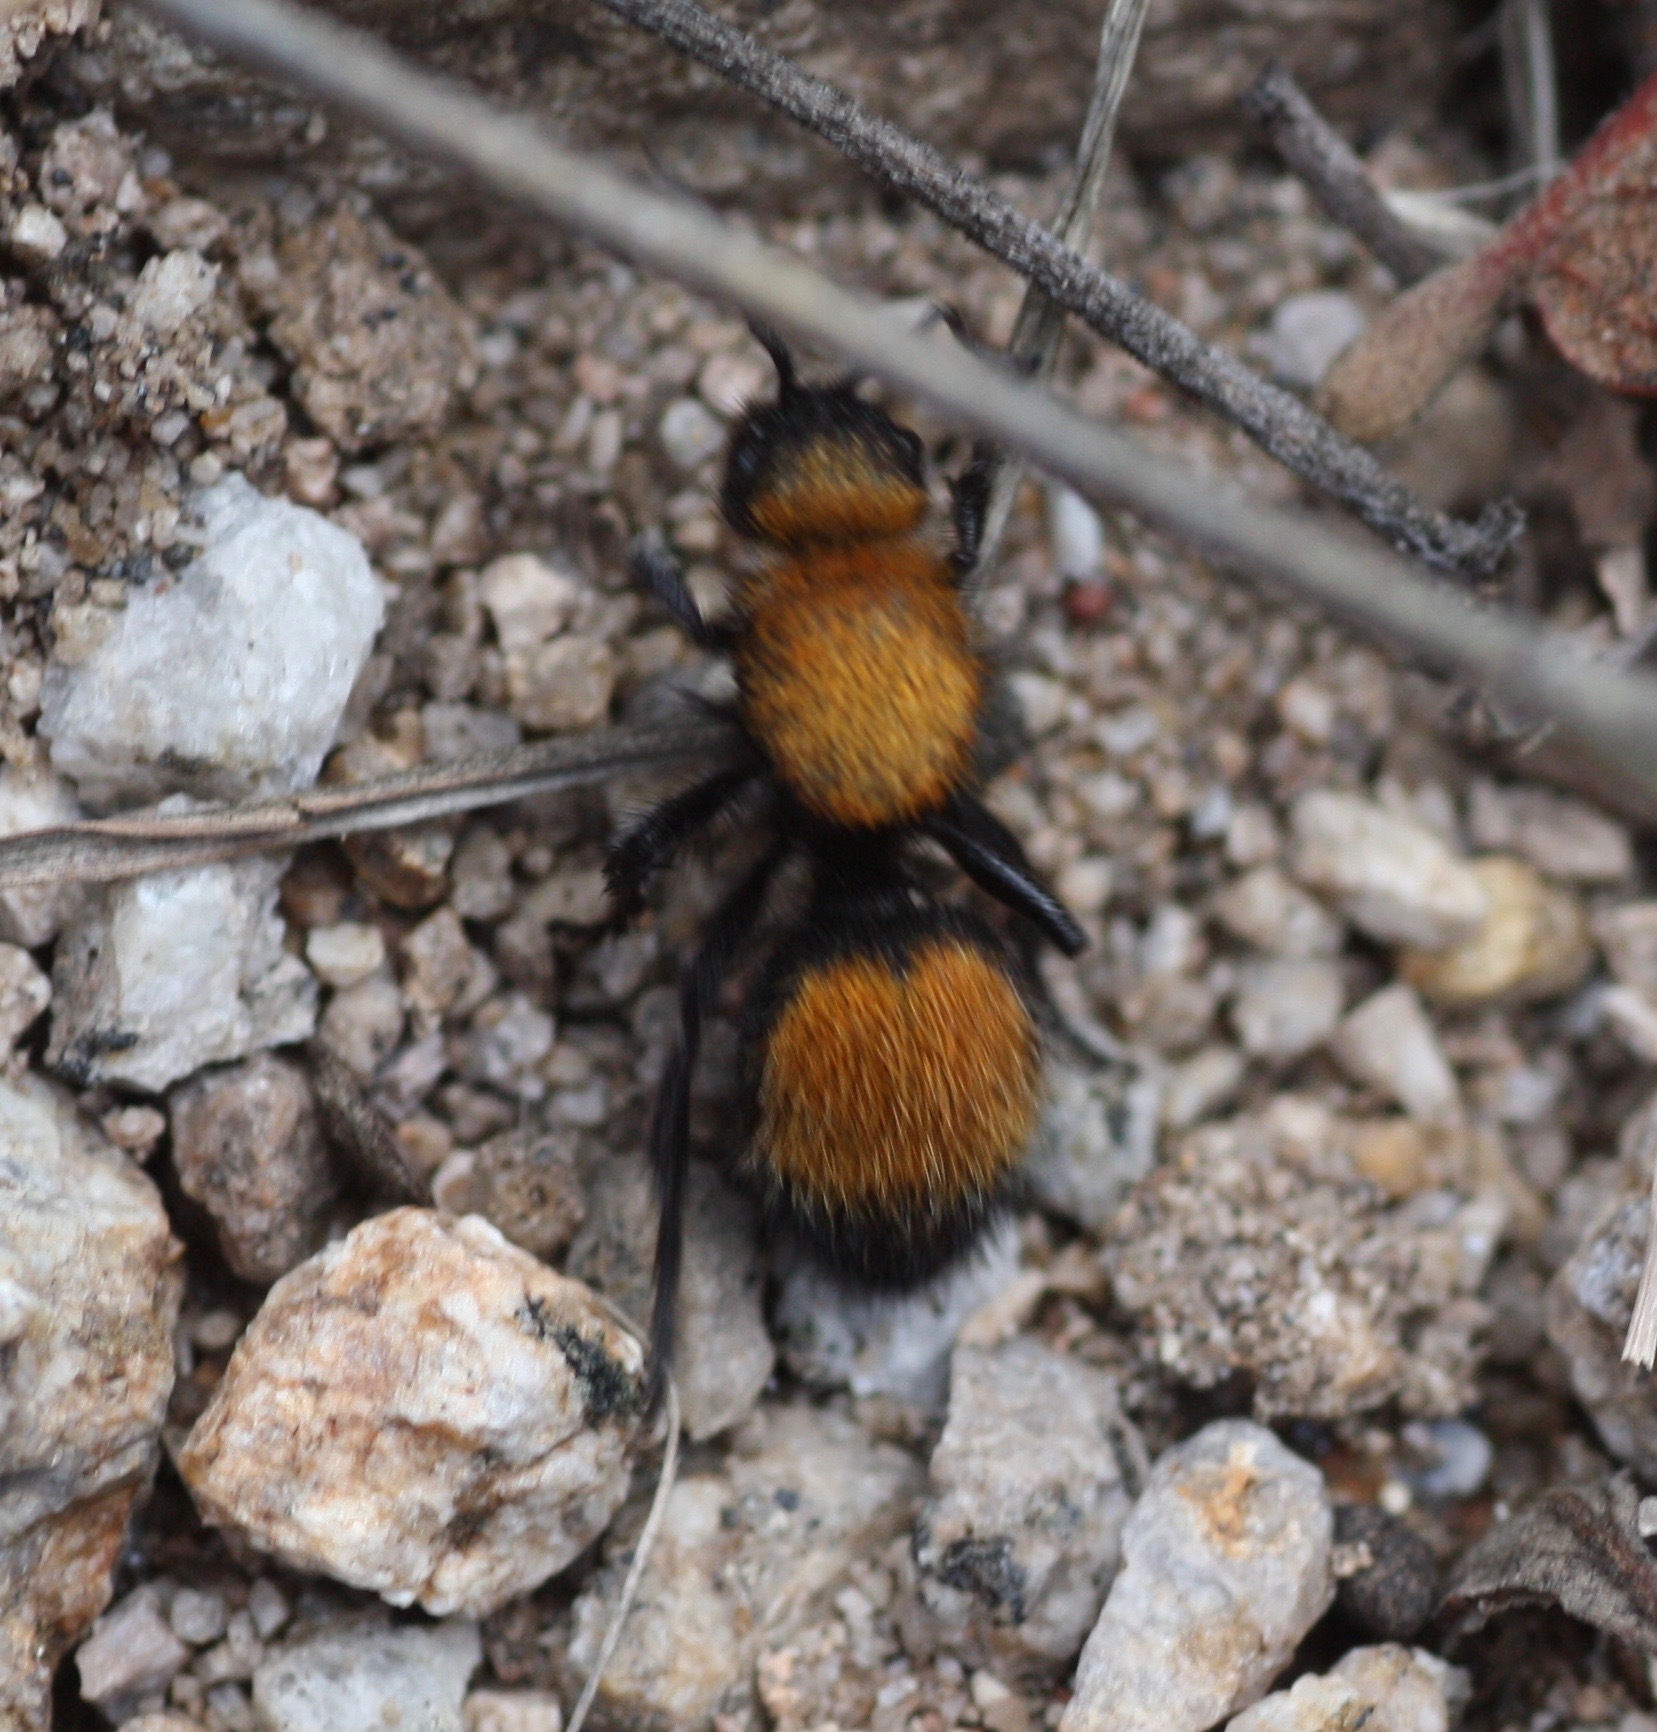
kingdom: Animalia
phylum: Arthropoda
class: Insecta
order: Hymenoptera
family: Mutillidae
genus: Dasymutilla
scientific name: Dasymutilla
